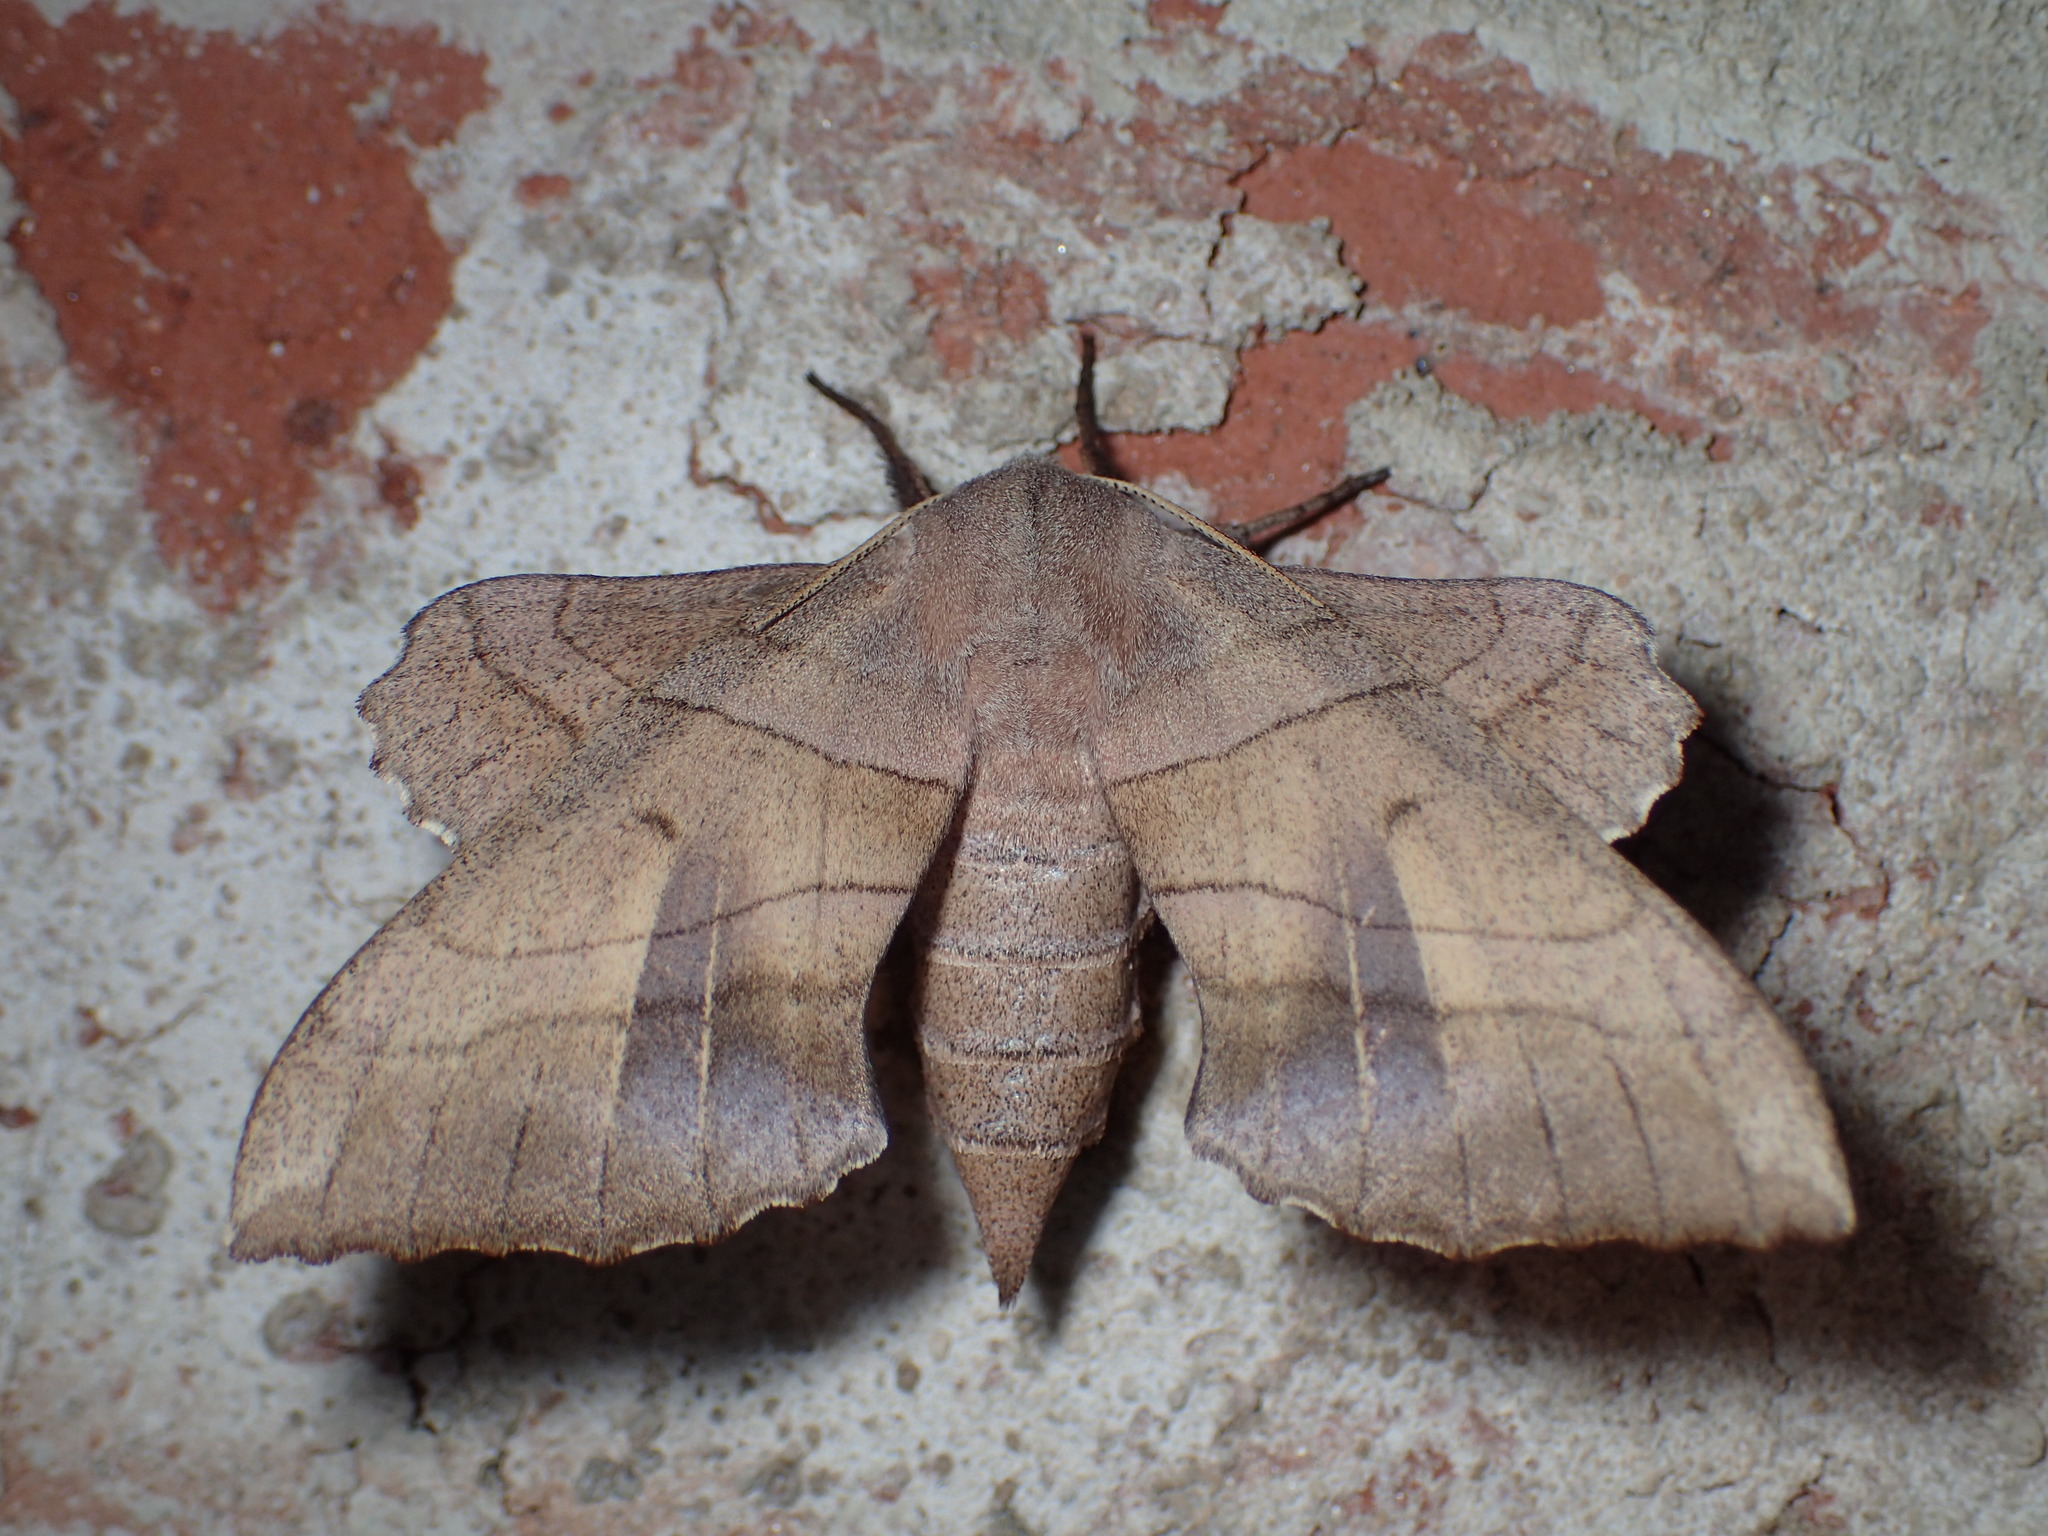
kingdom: Animalia
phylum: Arthropoda
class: Insecta
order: Lepidoptera
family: Sphingidae
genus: Amorpha
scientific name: Amorpha juglandis
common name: Walnut sphinx
